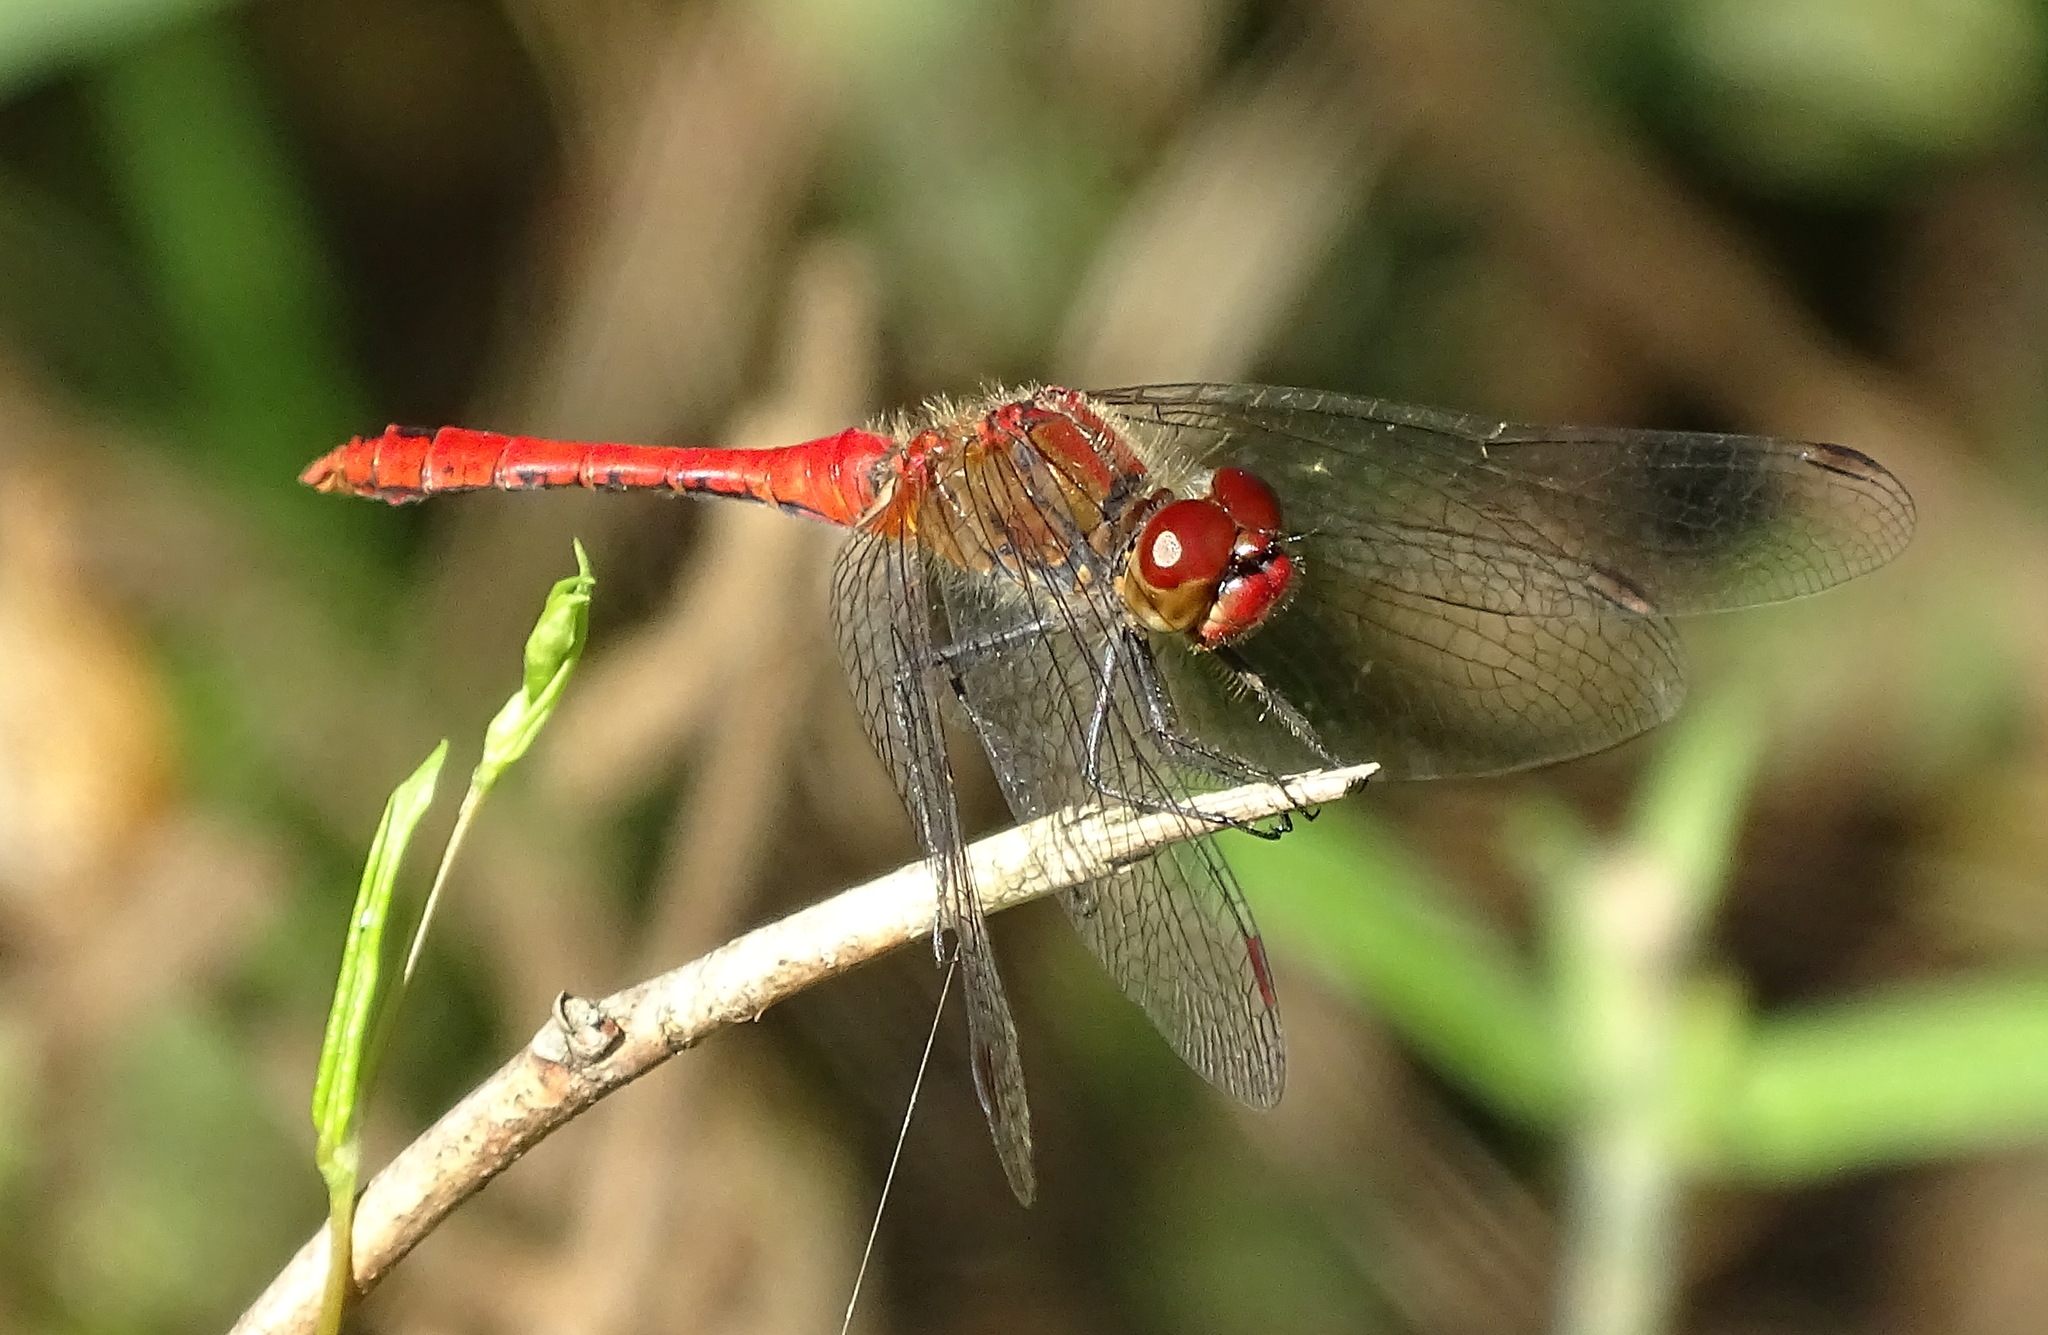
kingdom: Animalia
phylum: Arthropoda
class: Insecta
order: Odonata
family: Libellulidae
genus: Sympetrum
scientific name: Sympetrum sanguineum
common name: Ruddy darter
